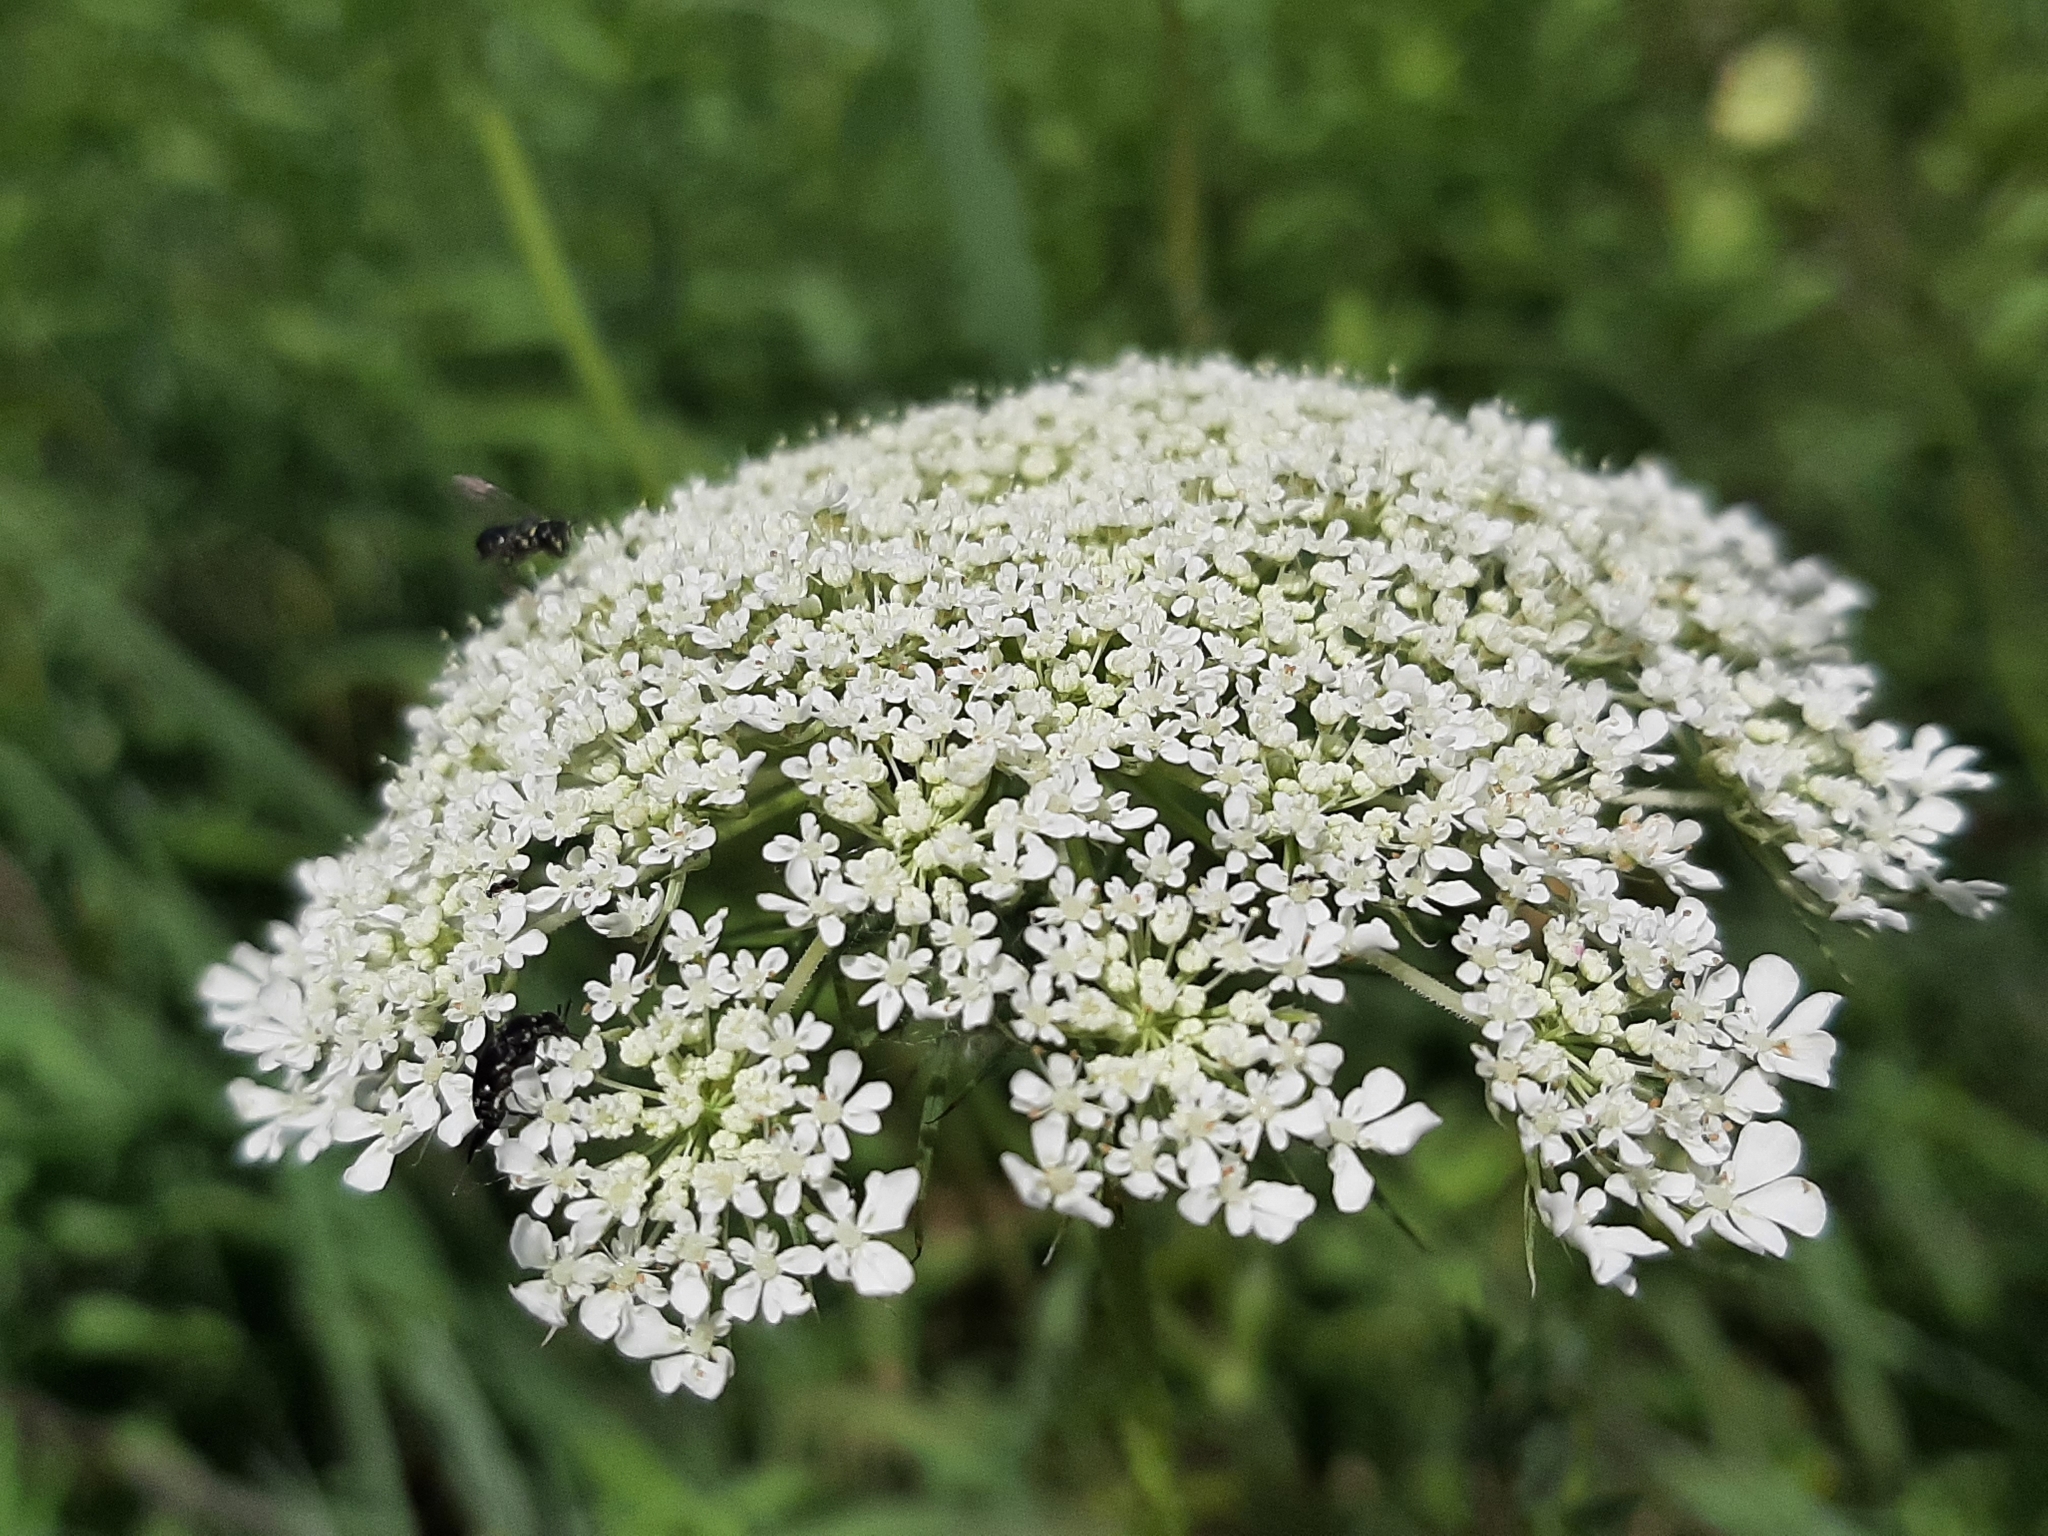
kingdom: Plantae
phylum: Tracheophyta
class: Magnoliopsida
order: Apiales
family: Apiaceae
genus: Daucus
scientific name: Daucus carota
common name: Wild carrot
